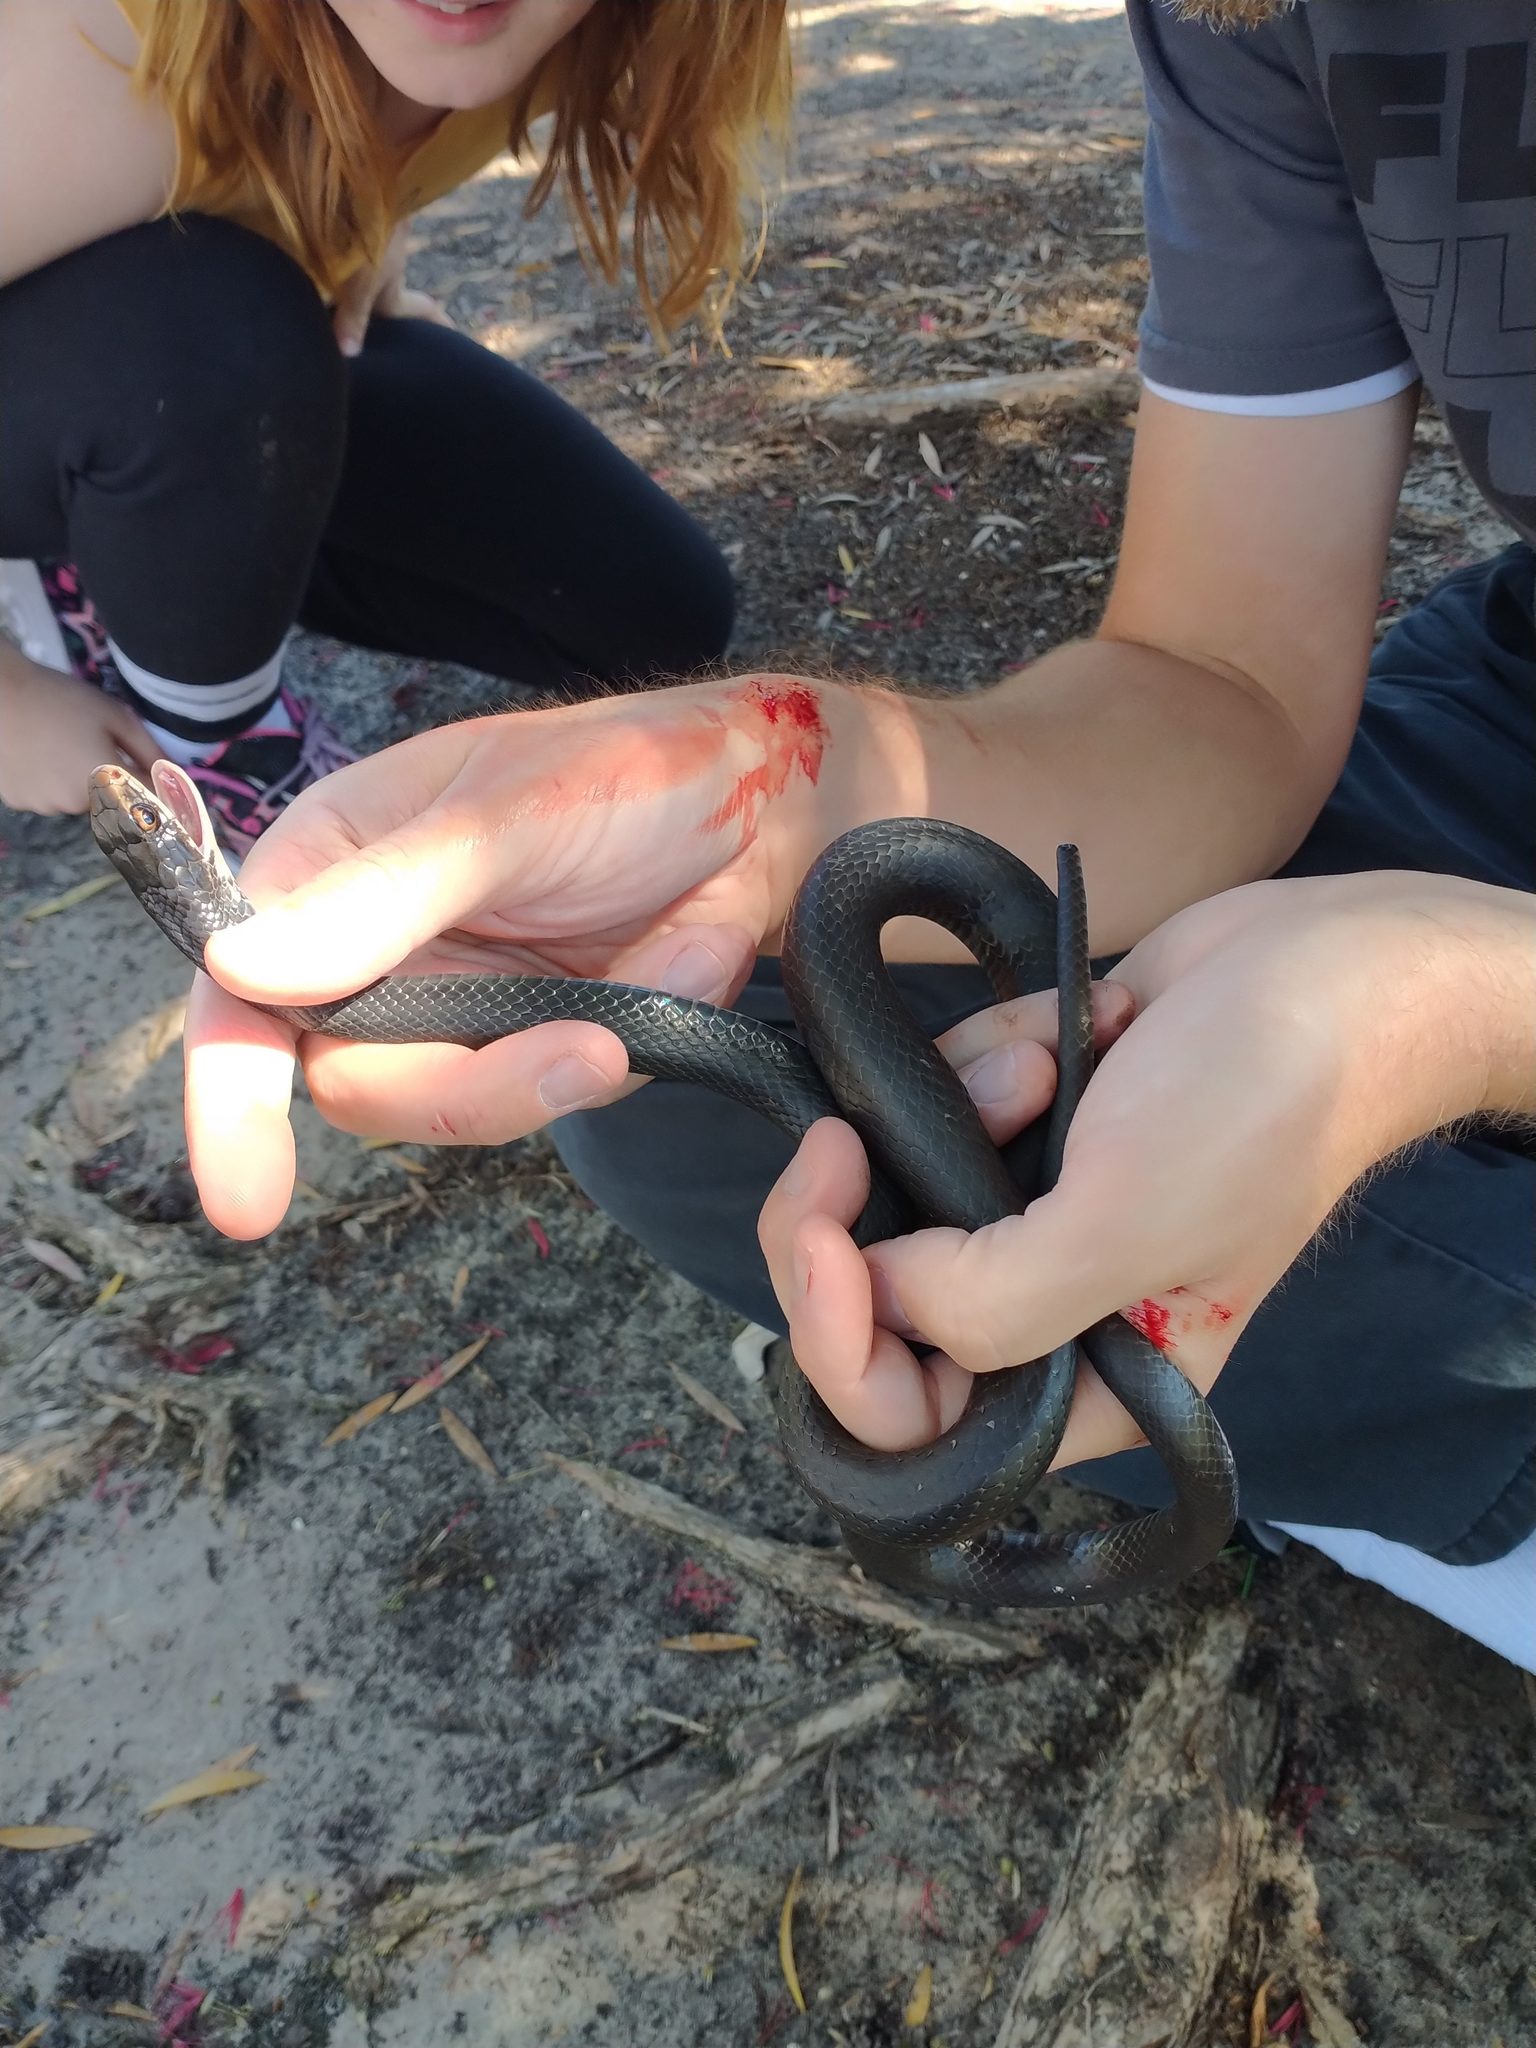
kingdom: Animalia
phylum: Chordata
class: Squamata
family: Colubridae
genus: Coluber
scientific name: Coluber constrictor
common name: Eastern racer
